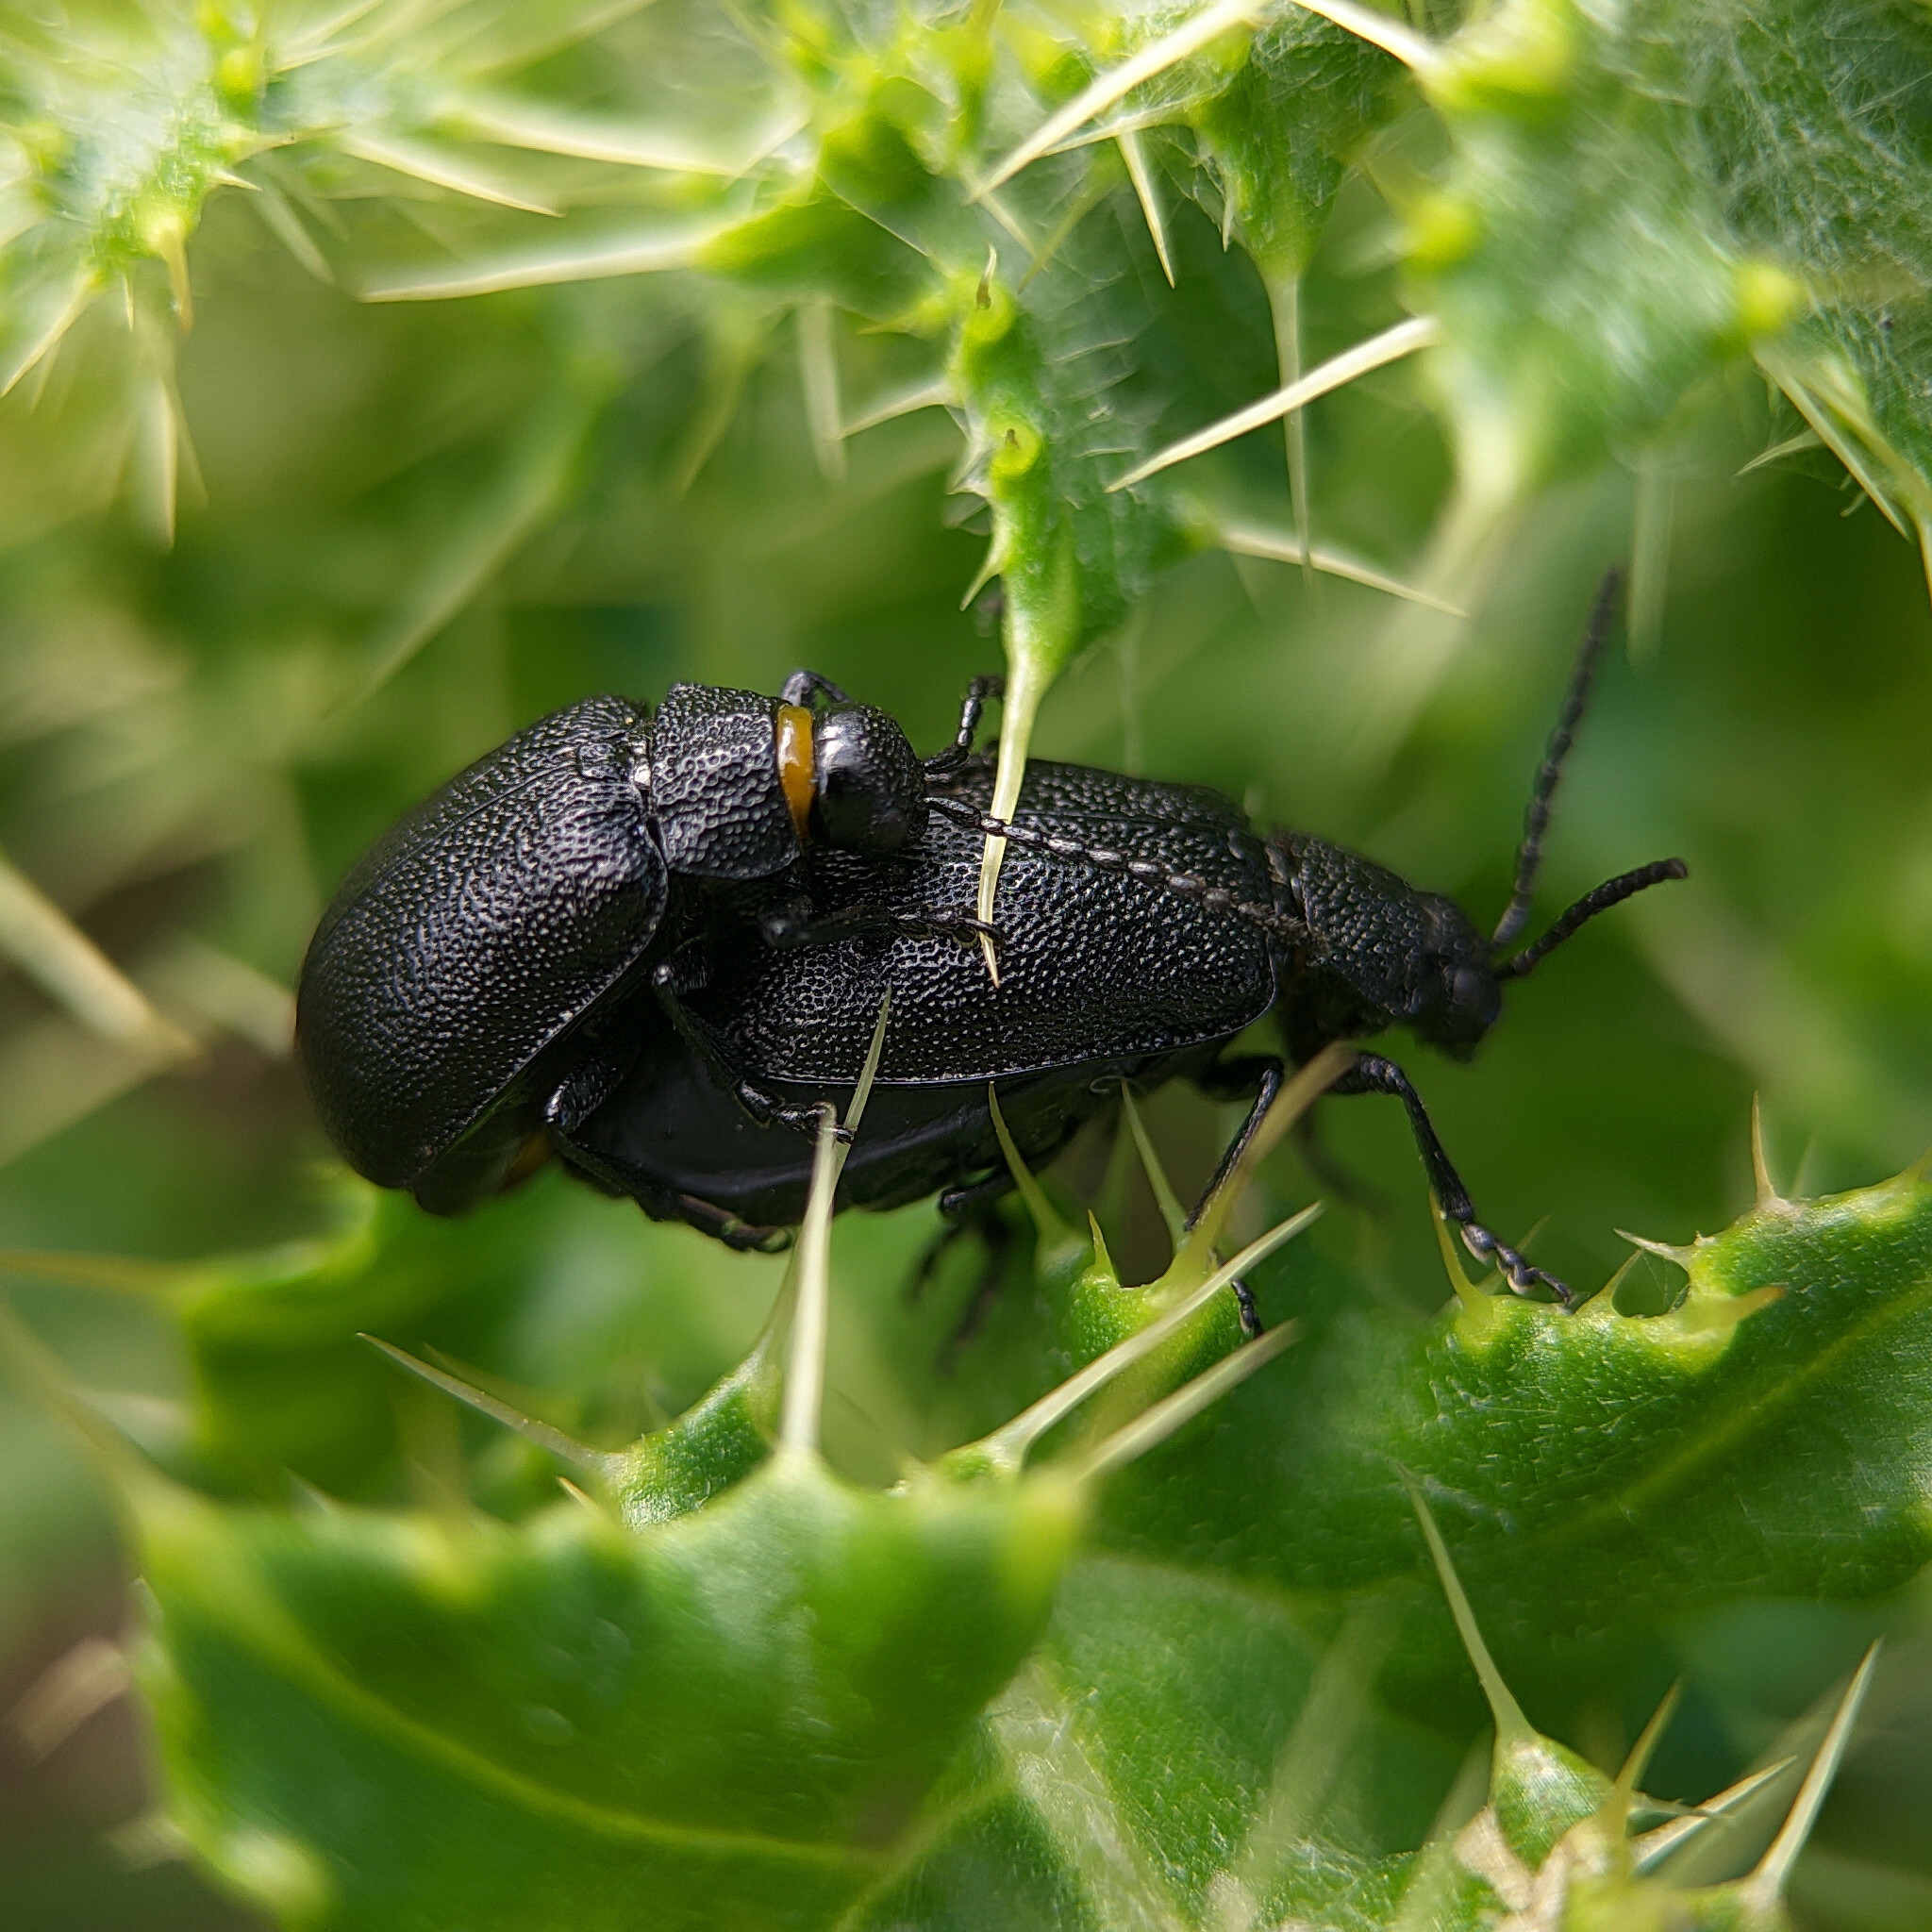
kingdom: Animalia
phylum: Arthropoda
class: Insecta
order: Coleoptera
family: Chrysomelidae
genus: Galeruca
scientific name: Galeruca tanaceti
